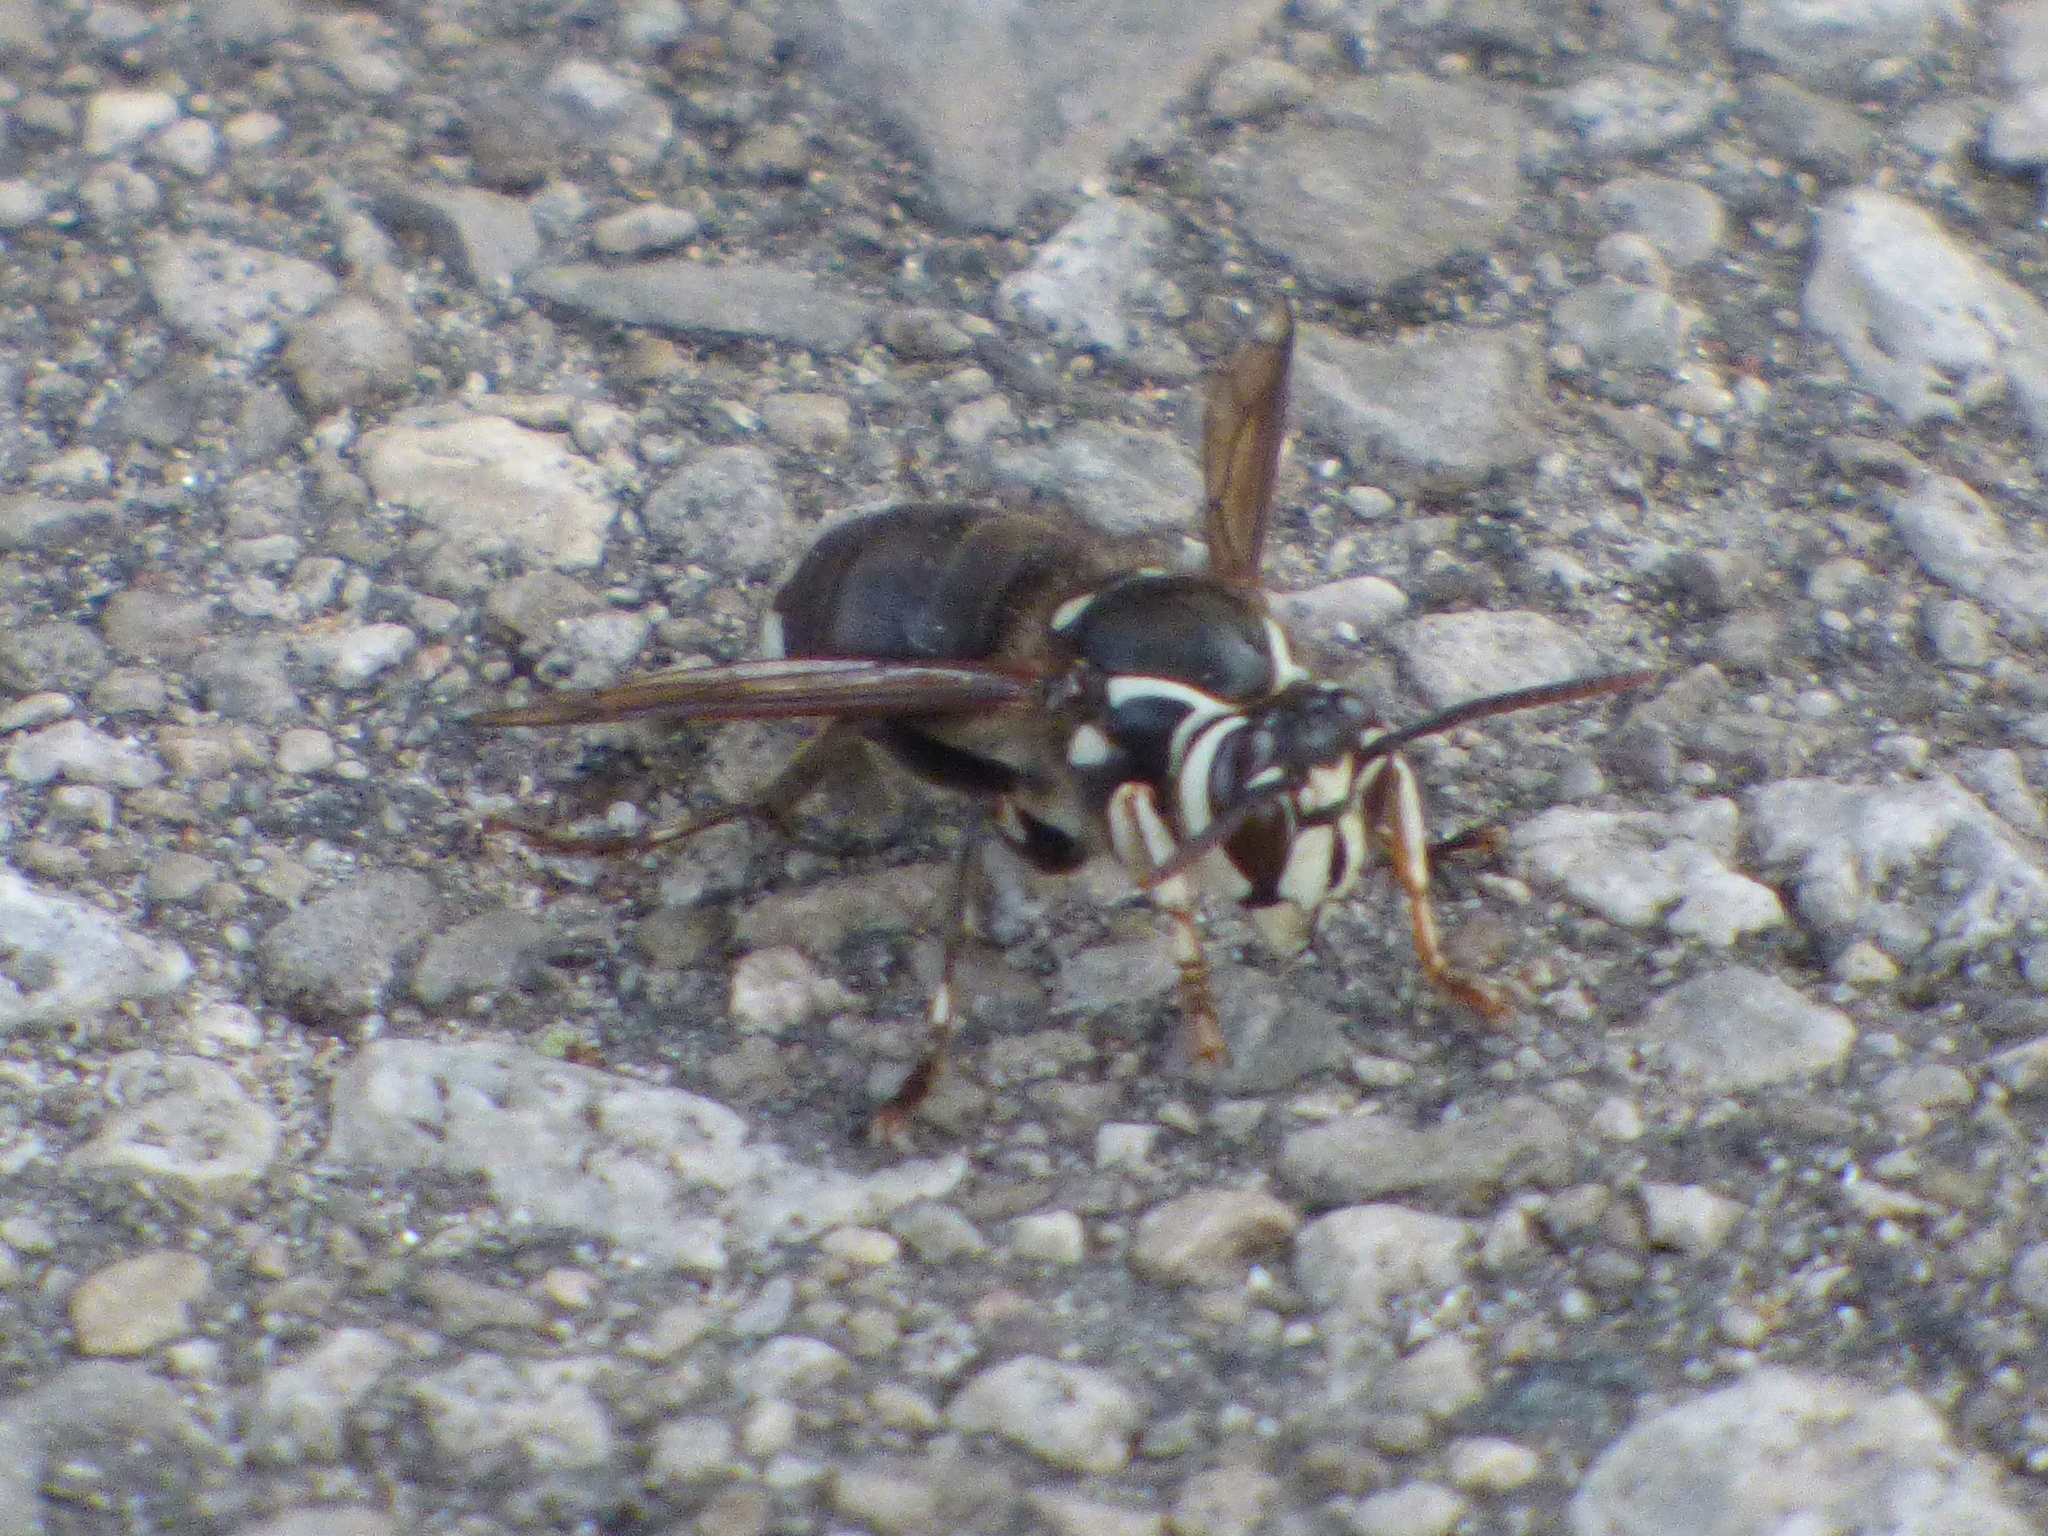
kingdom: Animalia
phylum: Arthropoda
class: Insecta
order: Hymenoptera
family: Vespidae
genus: Dolichovespula
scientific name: Dolichovespula maculata
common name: Bald-faced hornet
